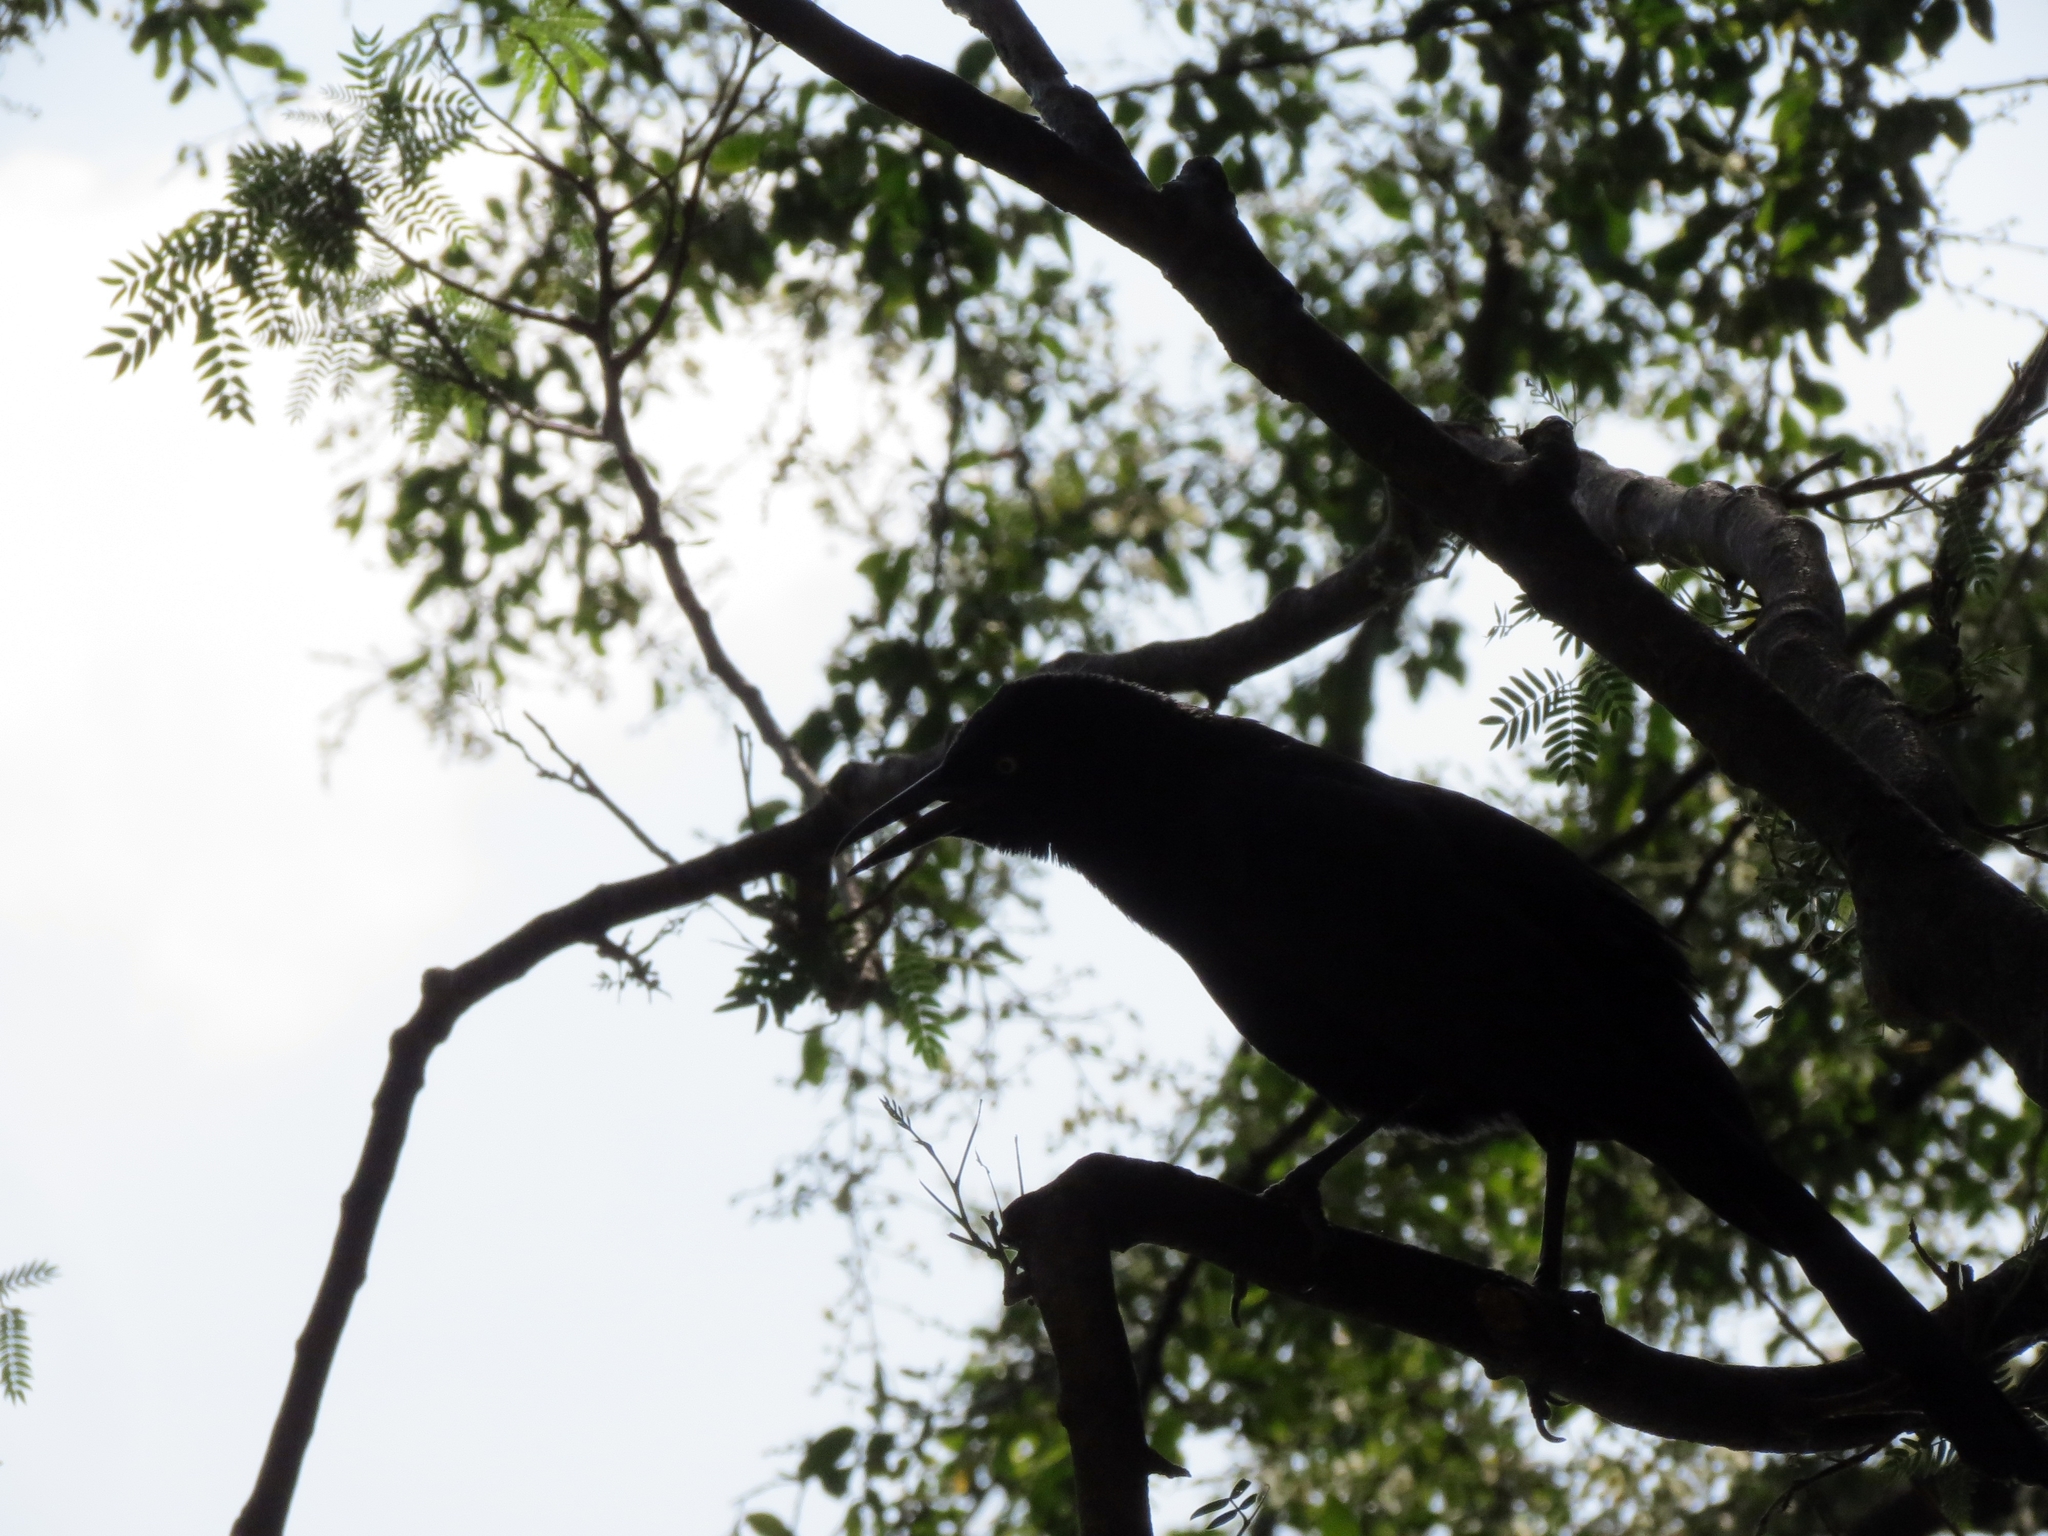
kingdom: Animalia
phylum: Chordata
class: Aves
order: Passeriformes
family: Icteridae
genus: Quiscalus
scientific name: Quiscalus mexicanus
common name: Great-tailed grackle
